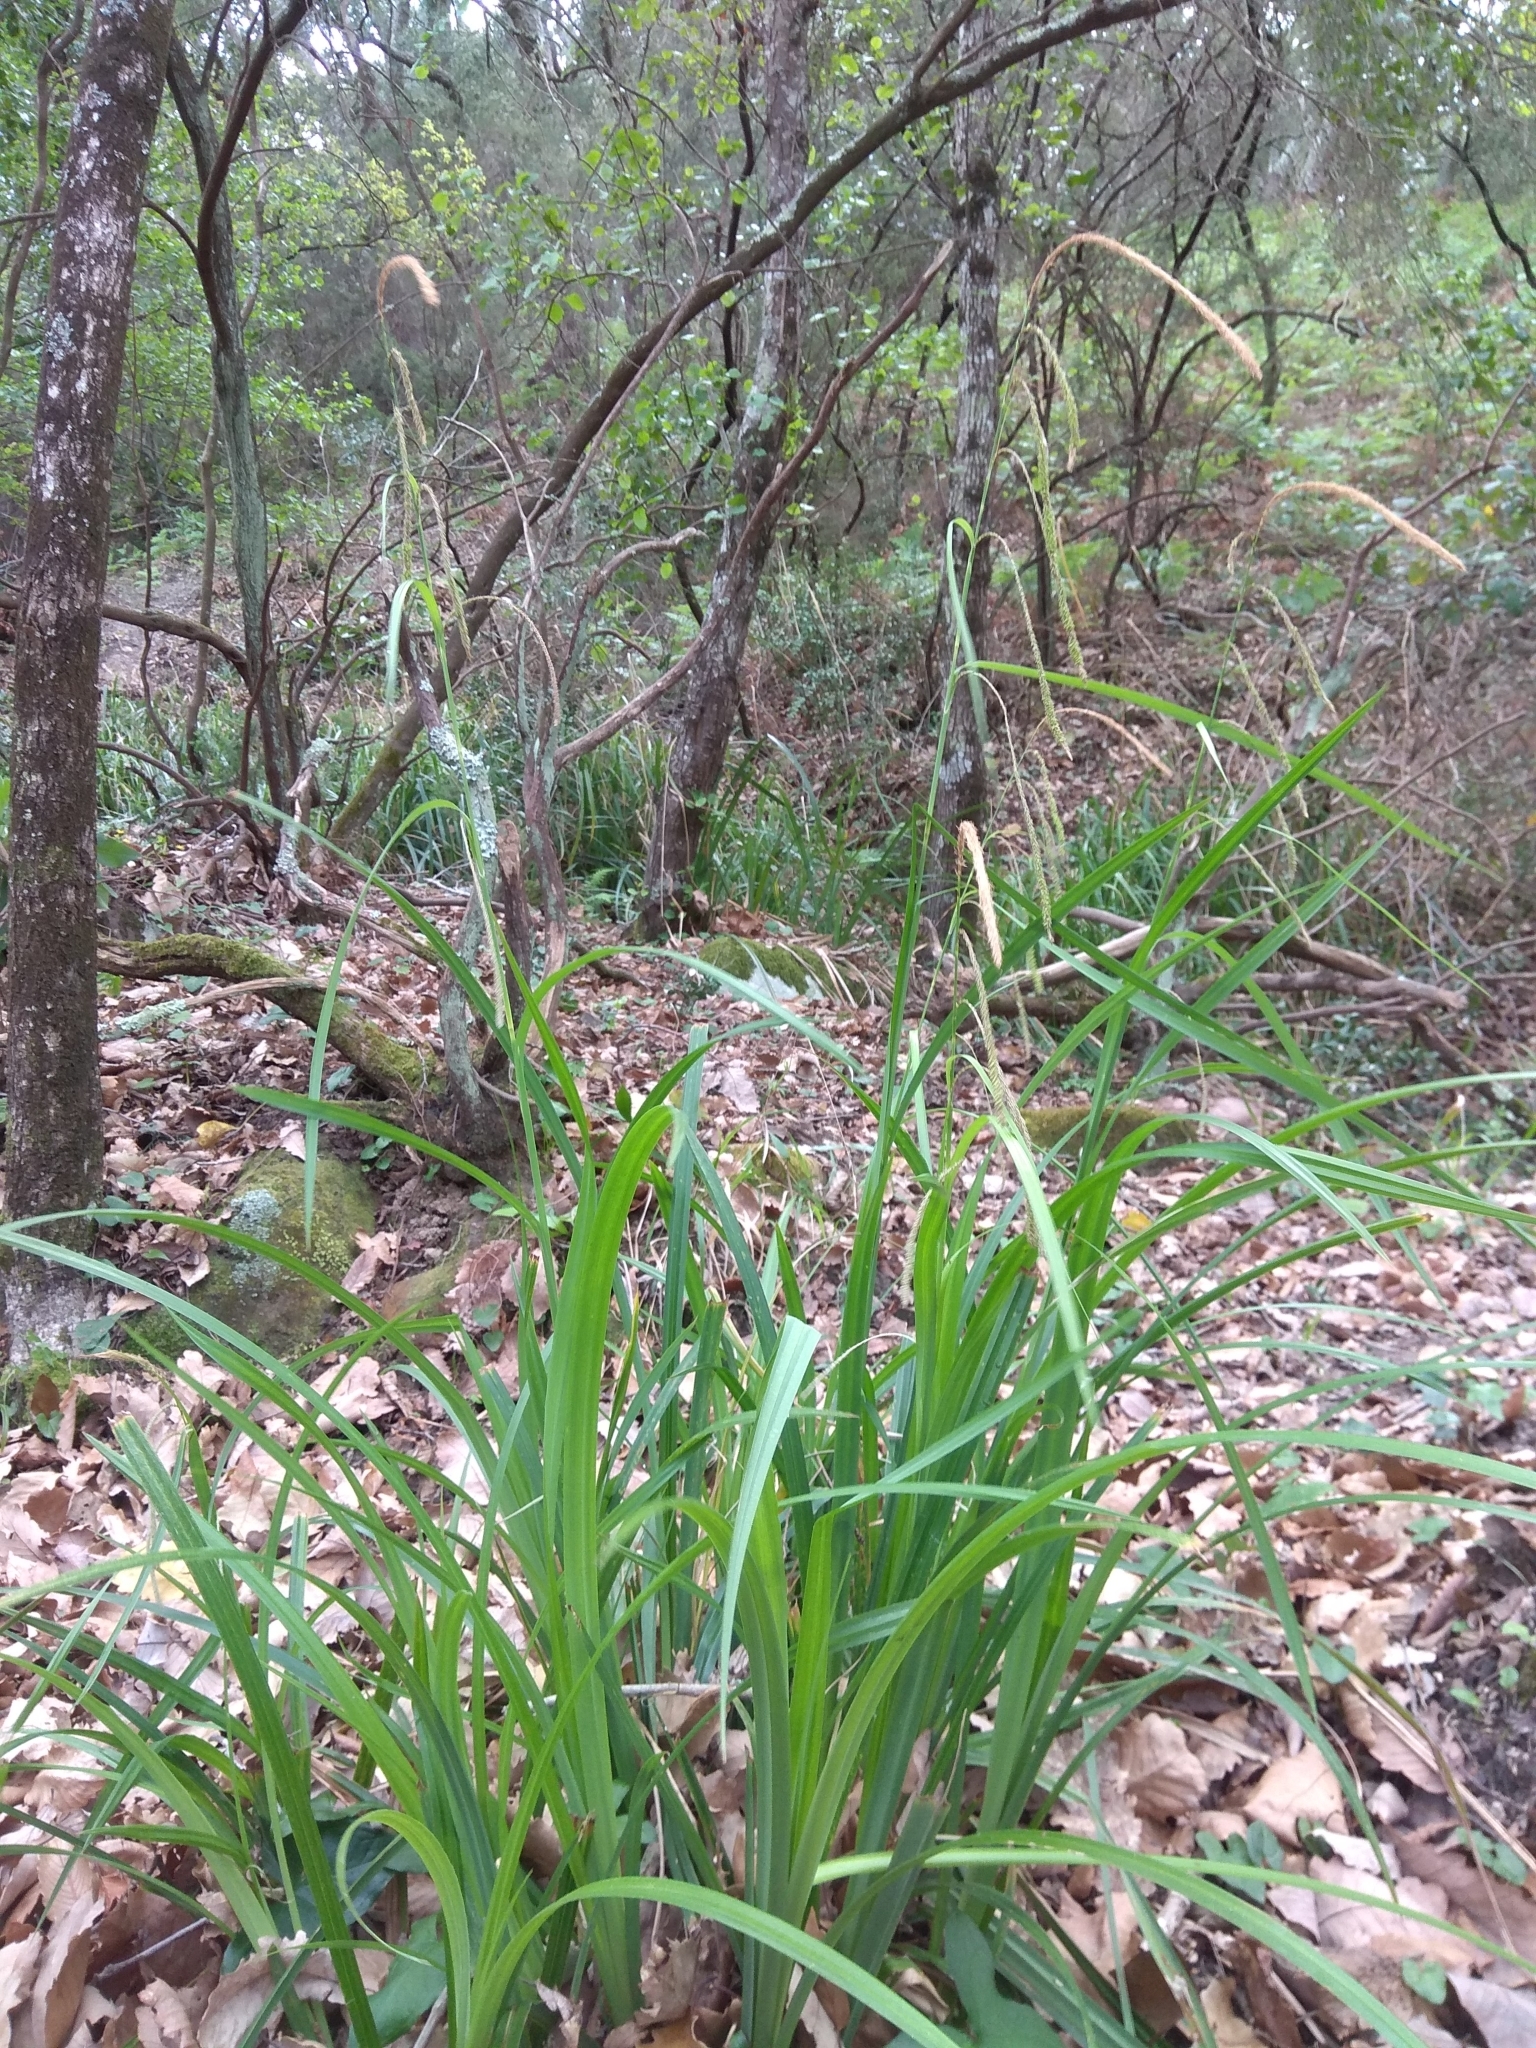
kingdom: Plantae
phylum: Tracheophyta
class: Liliopsida
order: Poales
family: Cyperaceae
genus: Carex
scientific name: Carex pendula
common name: Pendulous sedge
